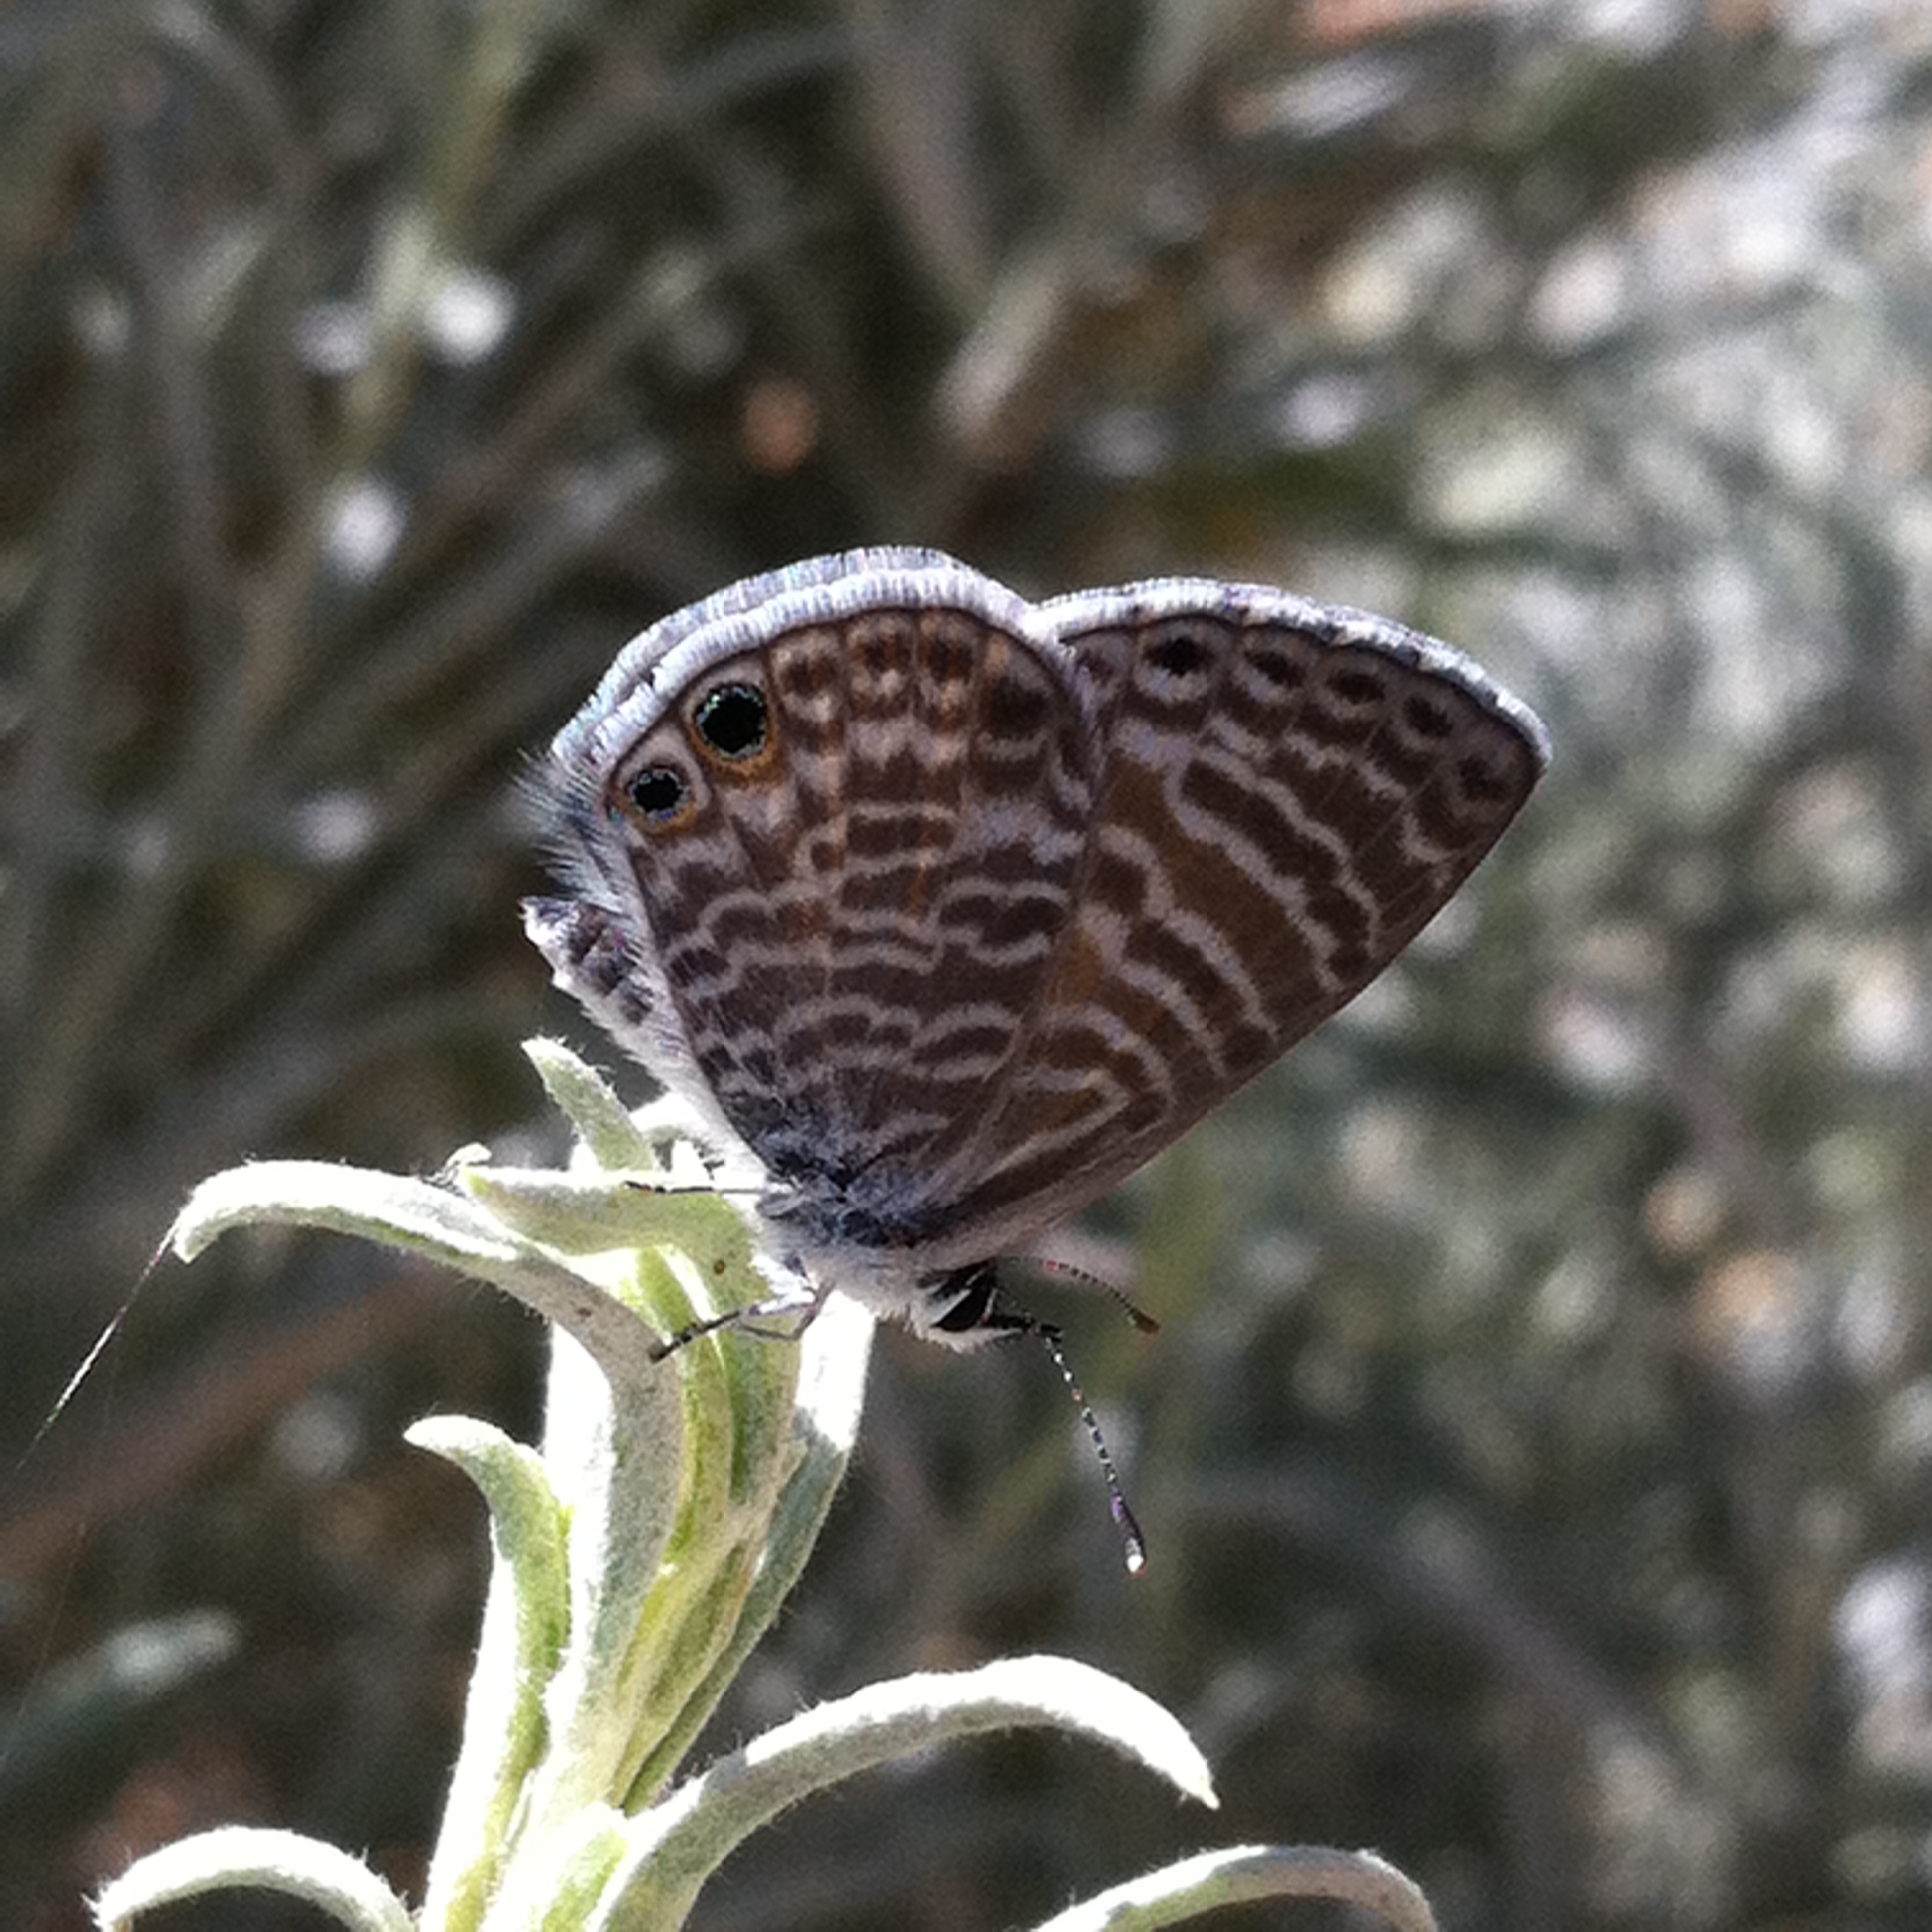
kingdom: Animalia
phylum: Arthropoda
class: Insecta
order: Lepidoptera
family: Lycaenidae
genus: Leptotes
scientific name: Leptotes marina
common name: Marine blue
